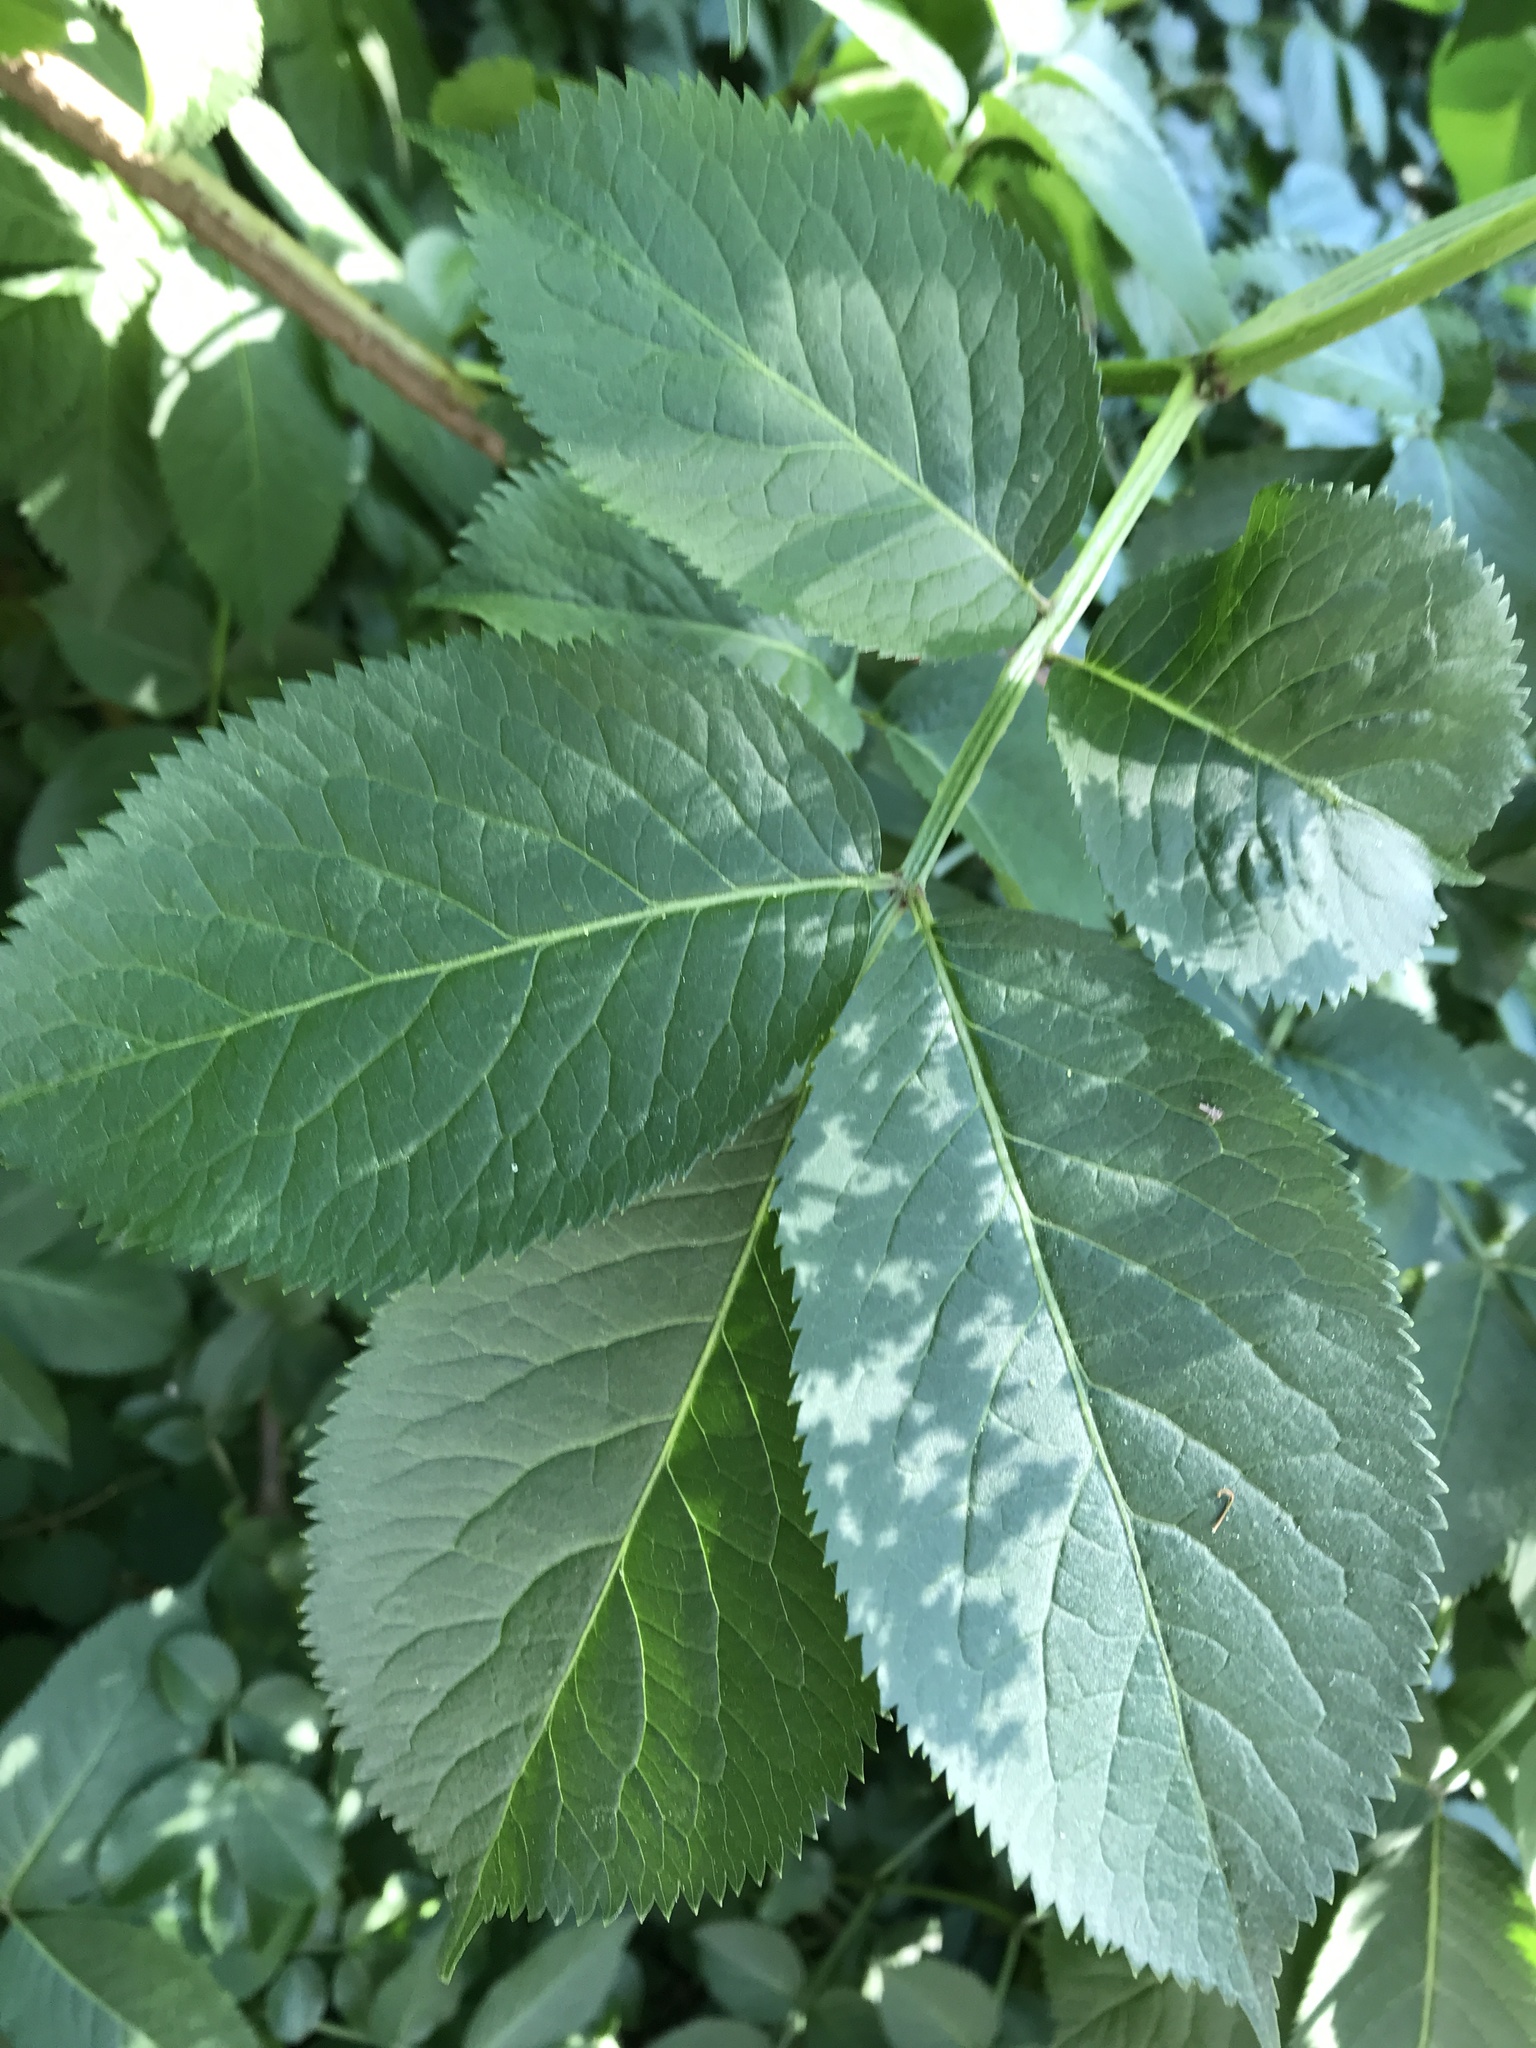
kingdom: Plantae
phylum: Tracheophyta
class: Magnoliopsida
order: Dipsacales
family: Viburnaceae
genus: Sambucus
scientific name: Sambucus nigra
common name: Elder
